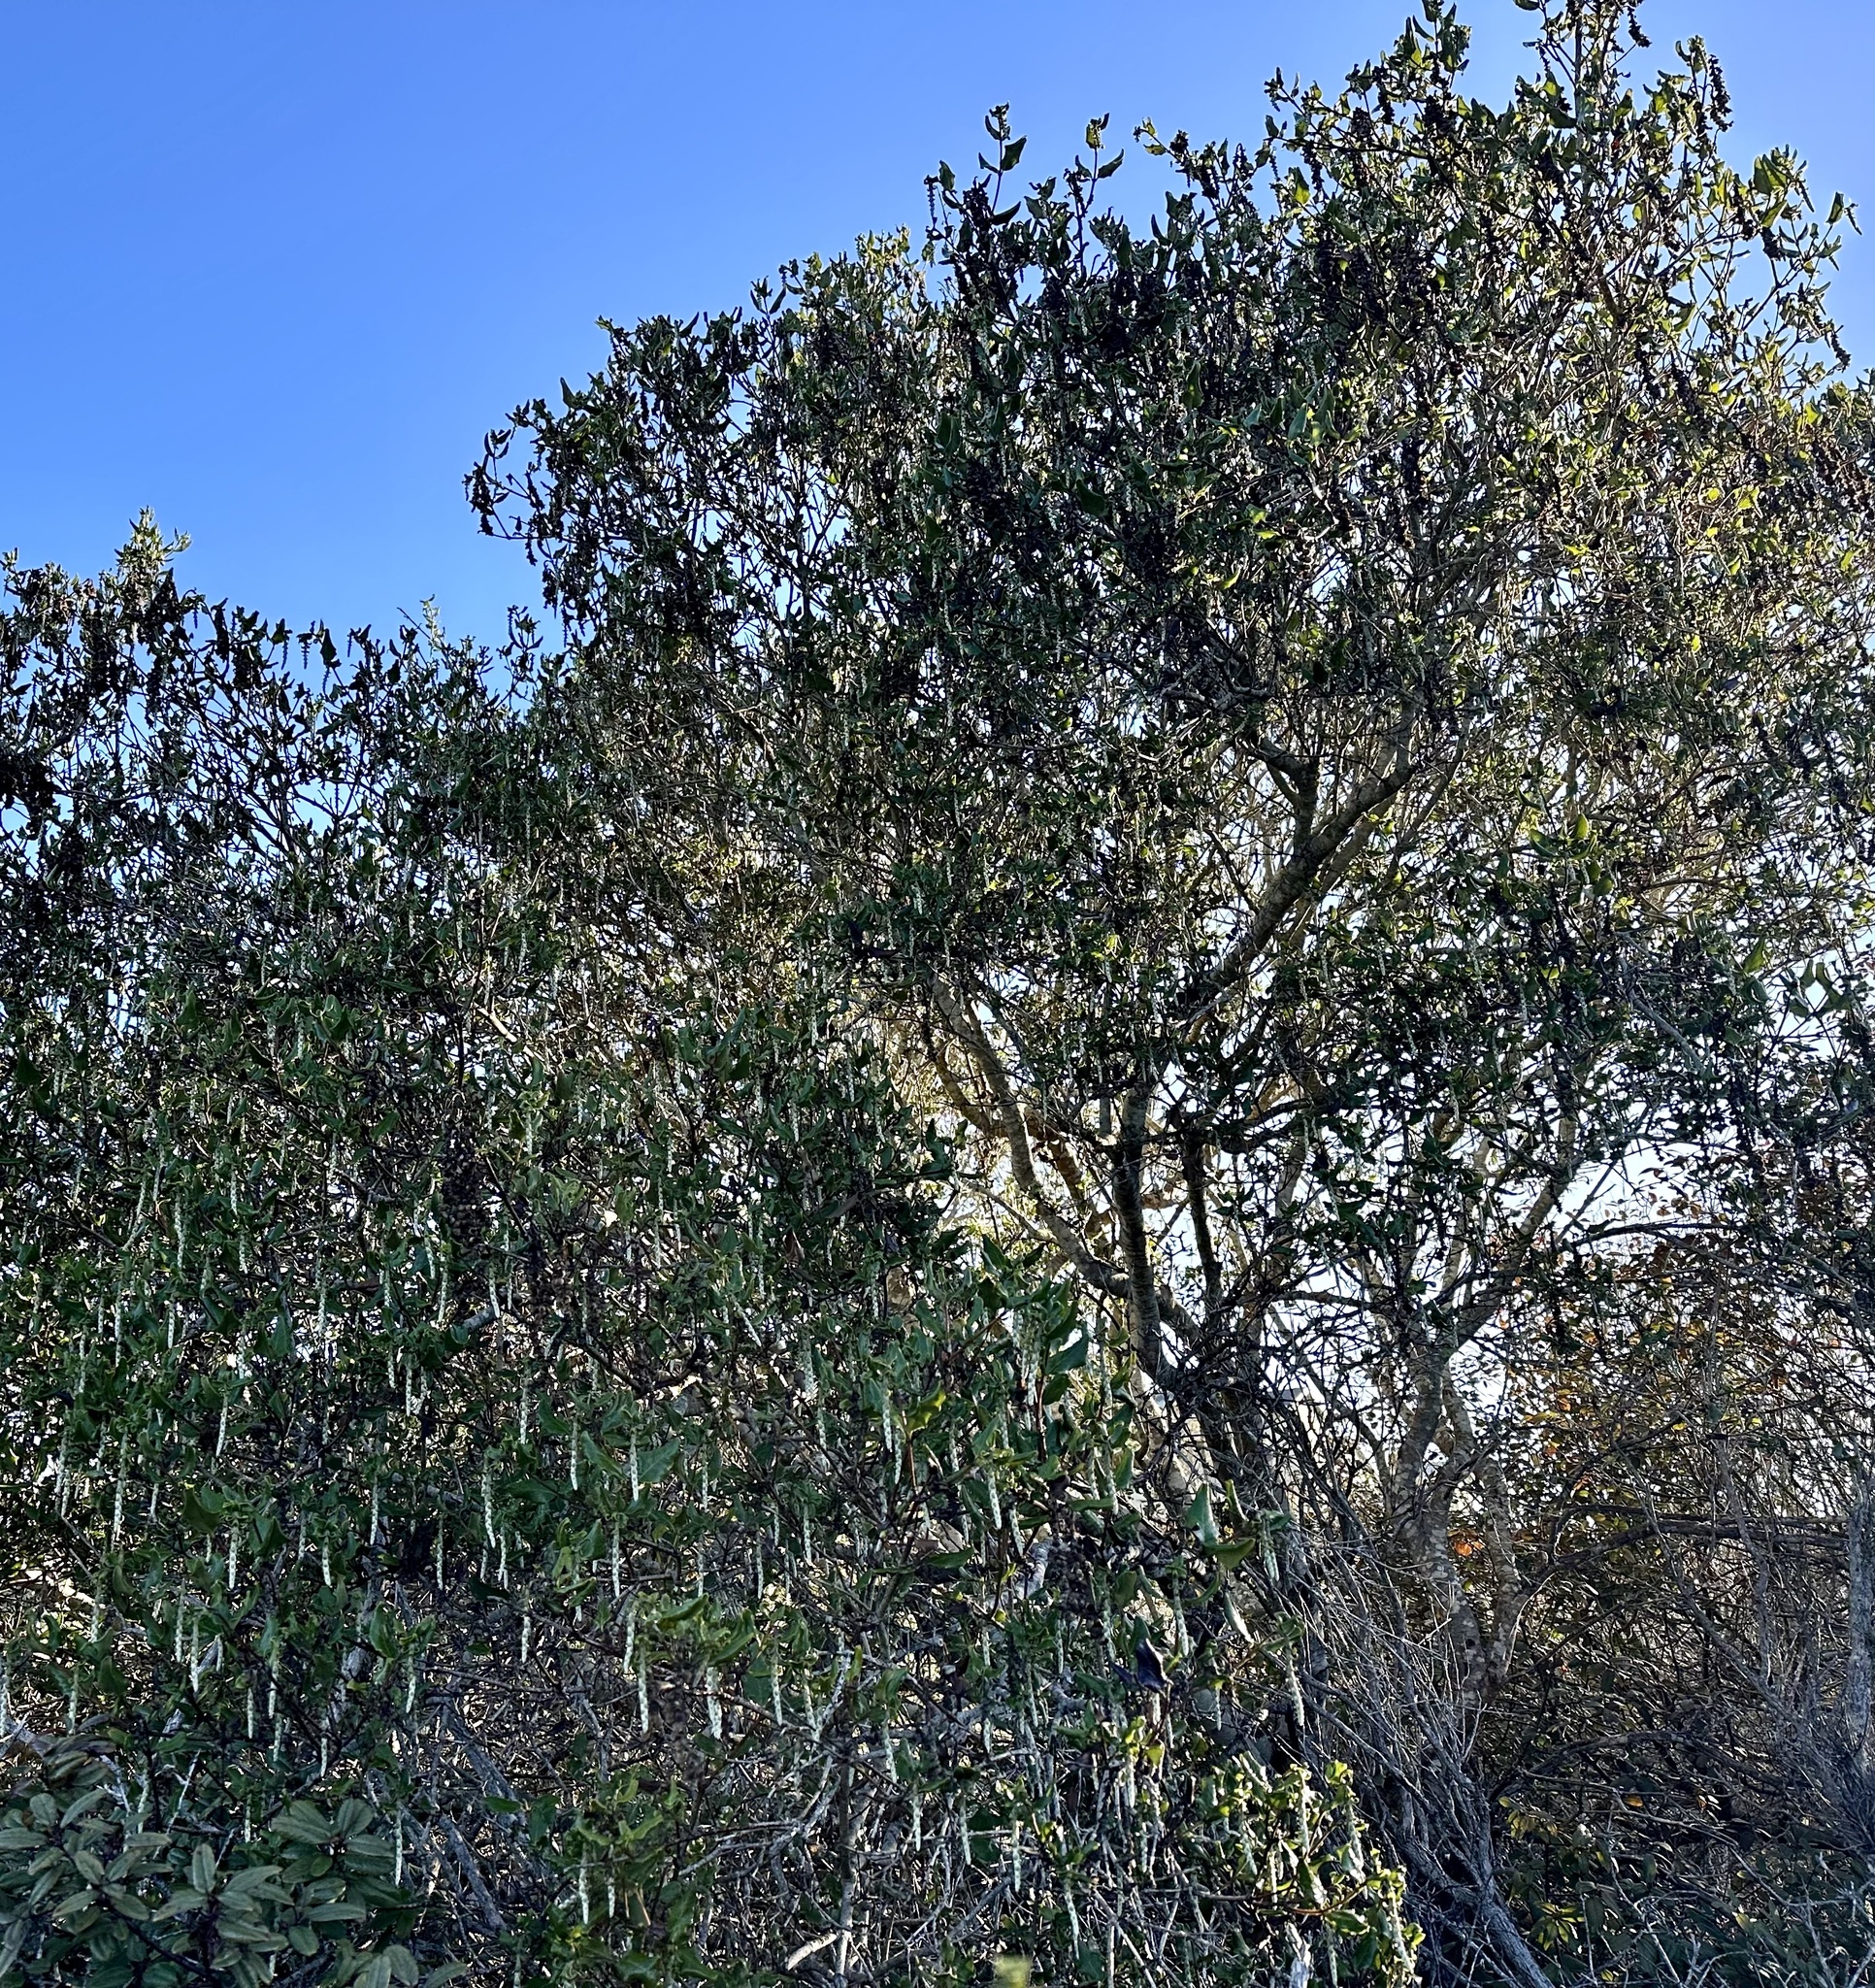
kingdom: Plantae
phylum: Tracheophyta
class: Magnoliopsida
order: Garryales
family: Garryaceae
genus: Garrya
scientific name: Garrya elliptica
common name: Silk-tassel
